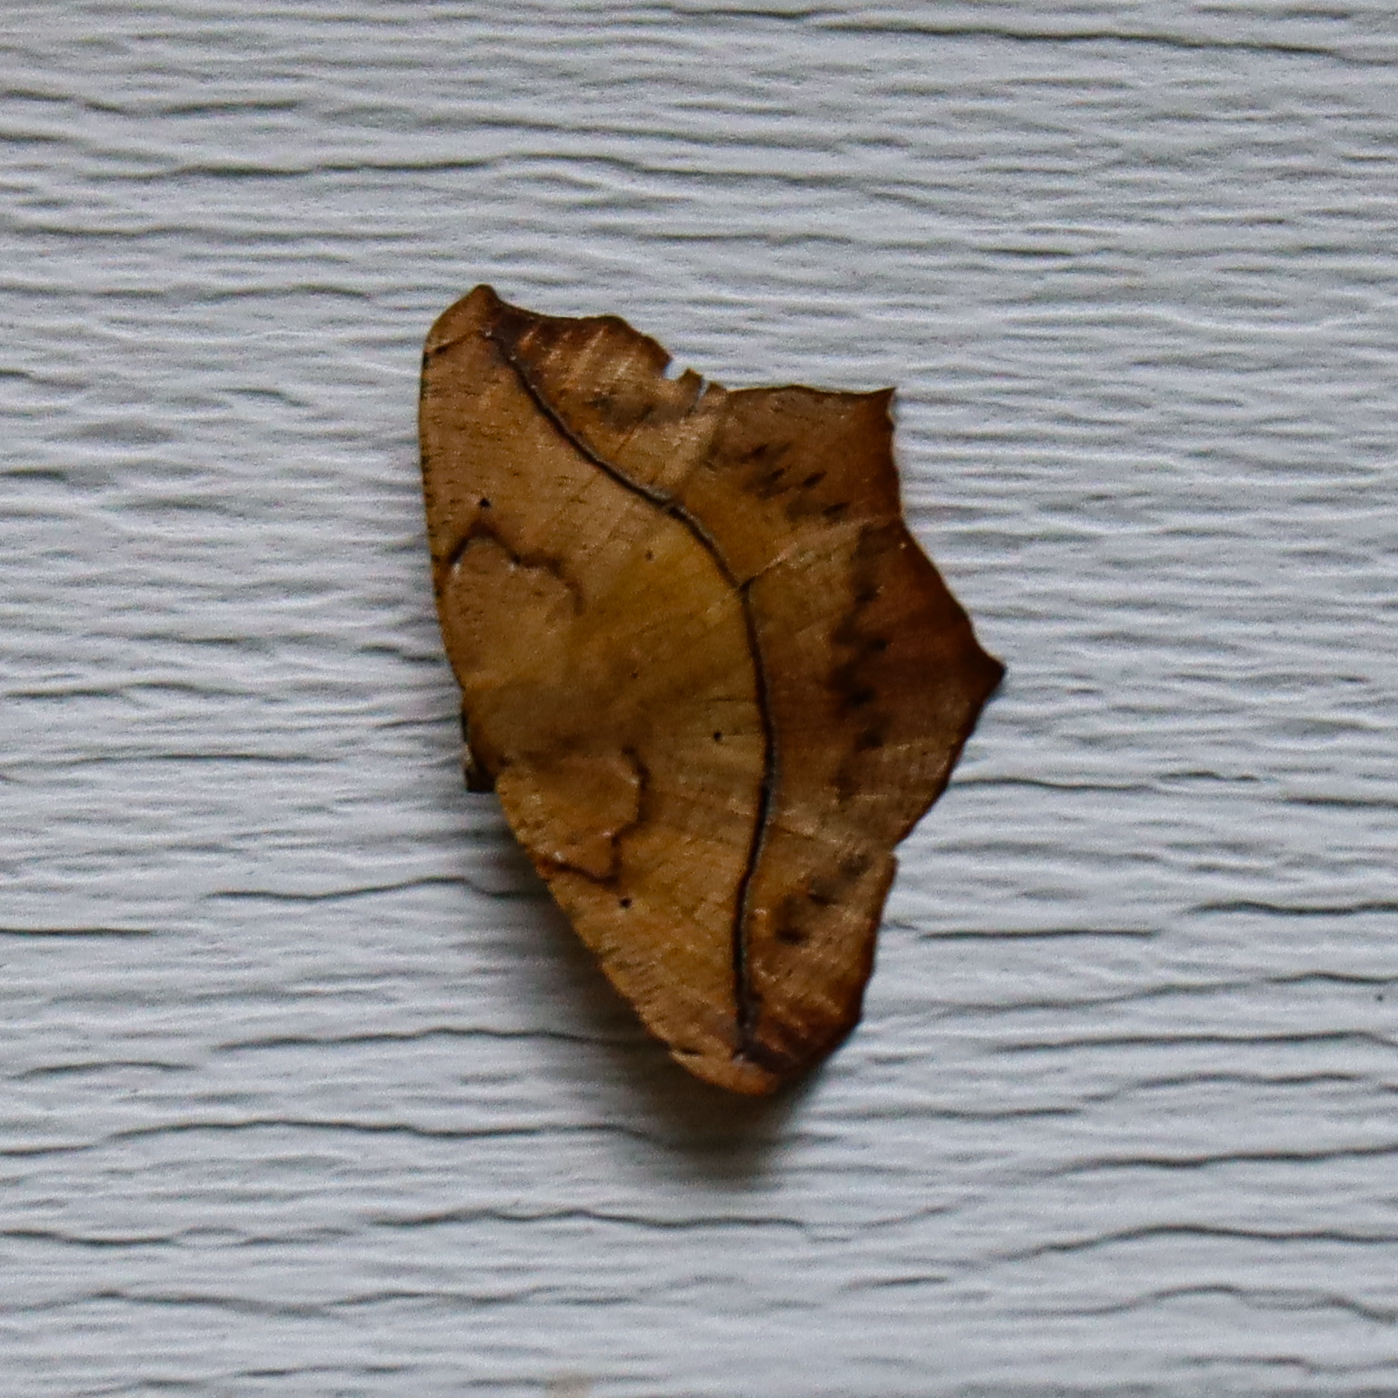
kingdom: Animalia
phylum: Arthropoda
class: Insecta
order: Lepidoptera
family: Geometridae
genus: Prochoerodes
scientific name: Prochoerodes lineola
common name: Large maple spanworm
